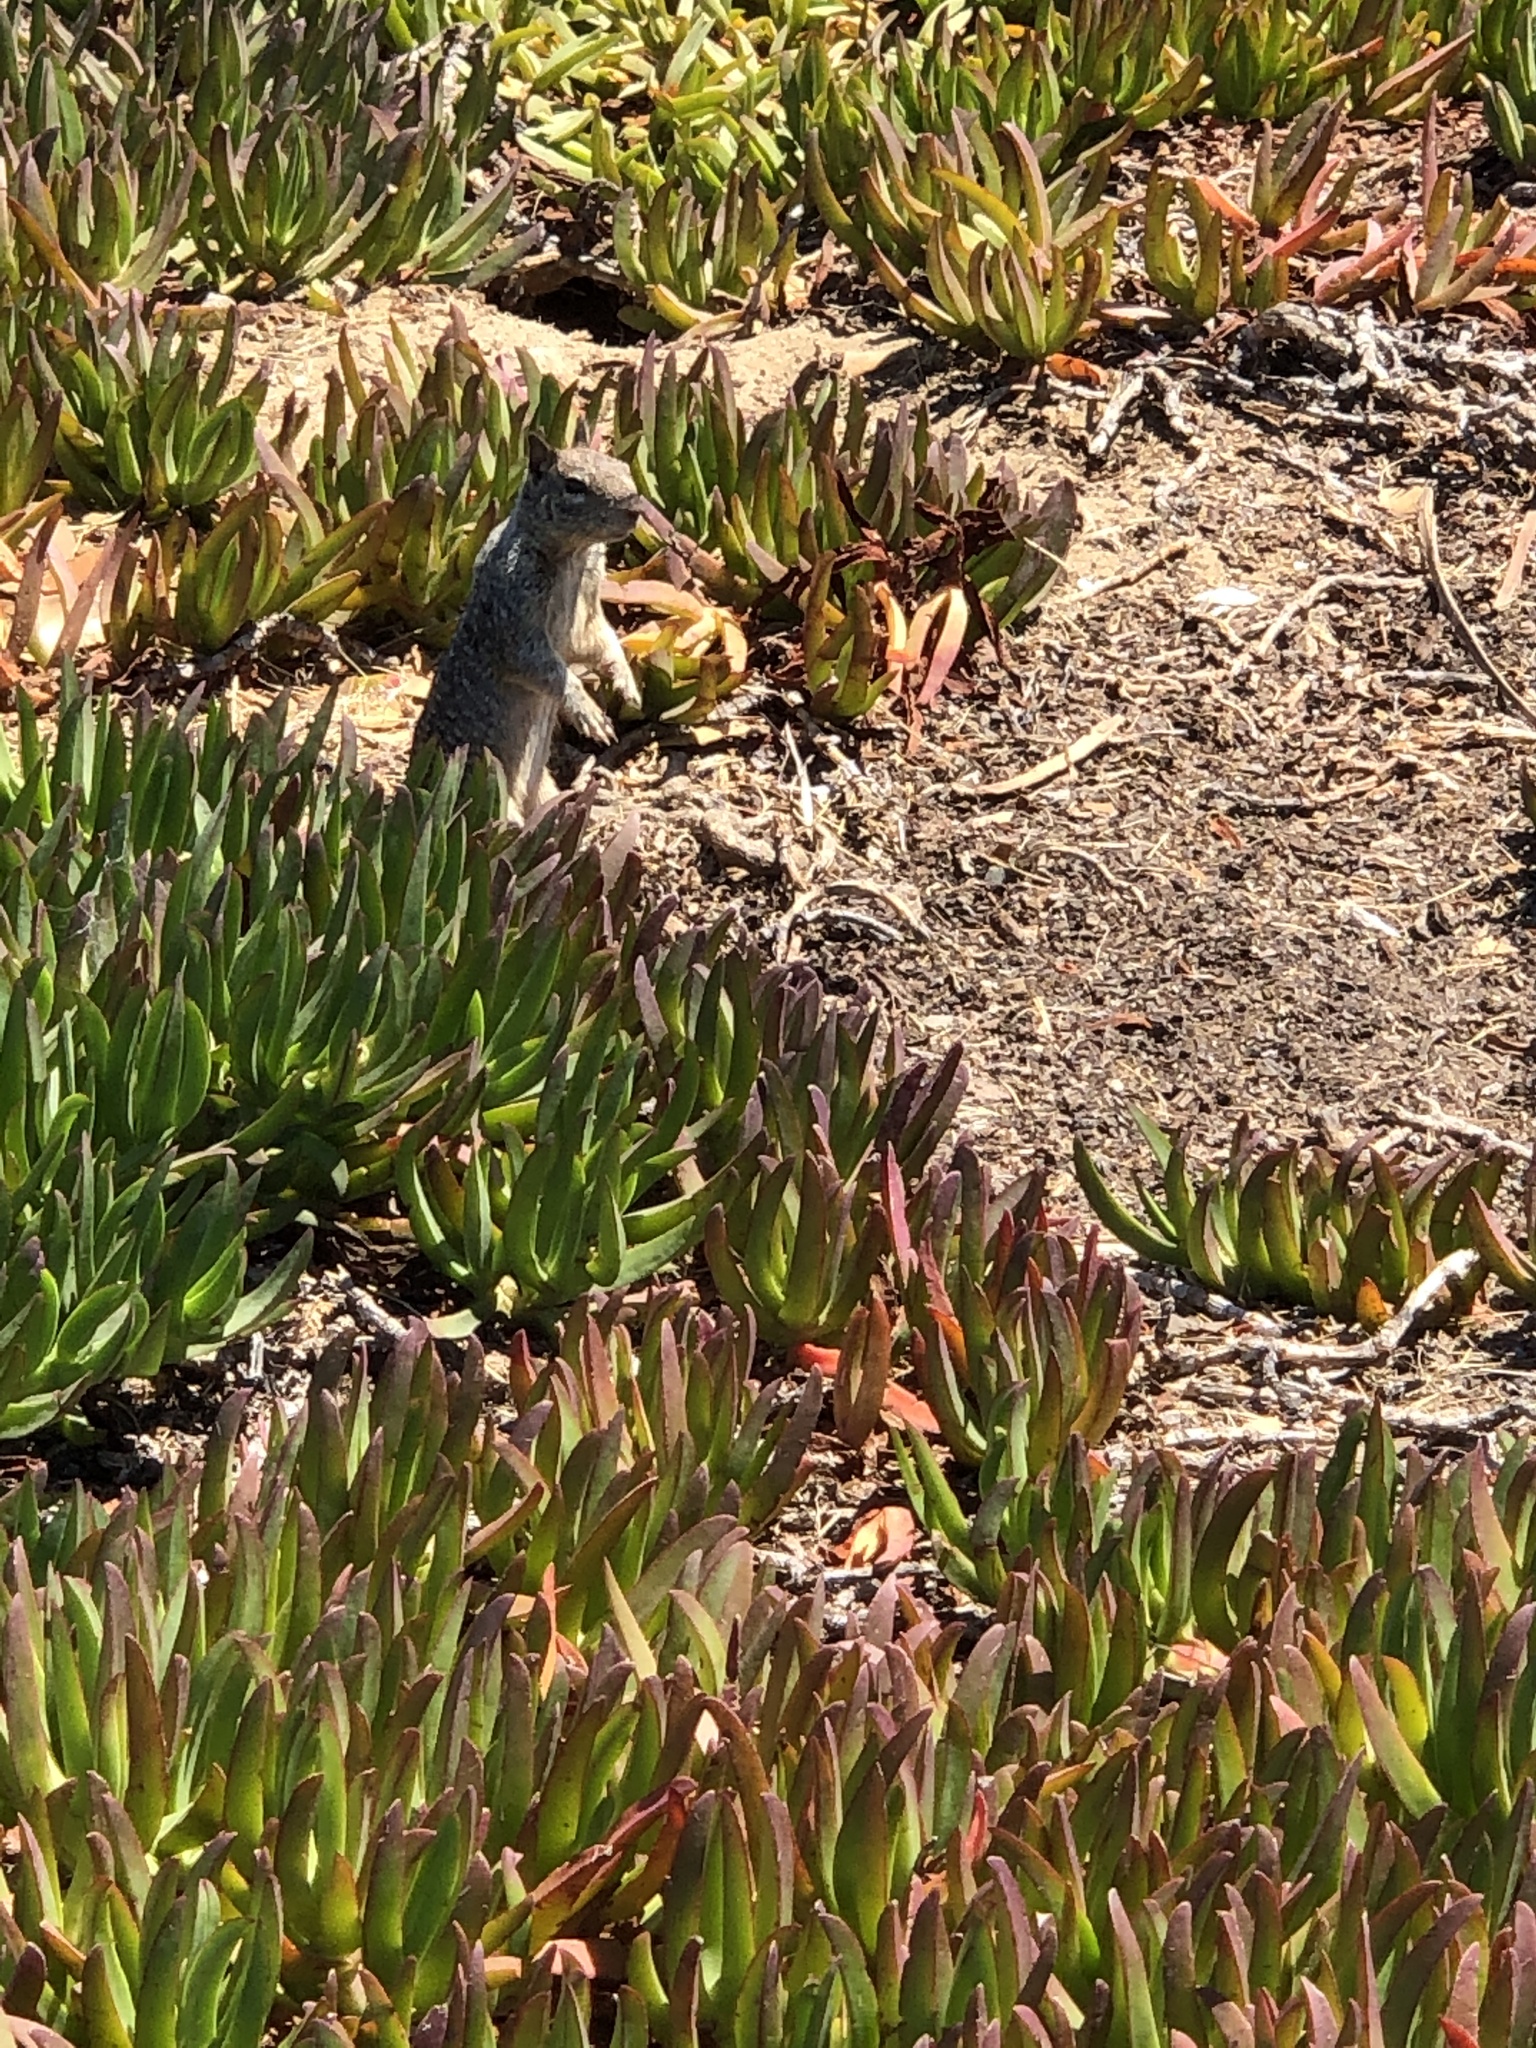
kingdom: Animalia
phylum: Chordata
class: Mammalia
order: Rodentia
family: Sciuridae
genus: Otospermophilus
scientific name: Otospermophilus beecheyi
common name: California ground squirrel
